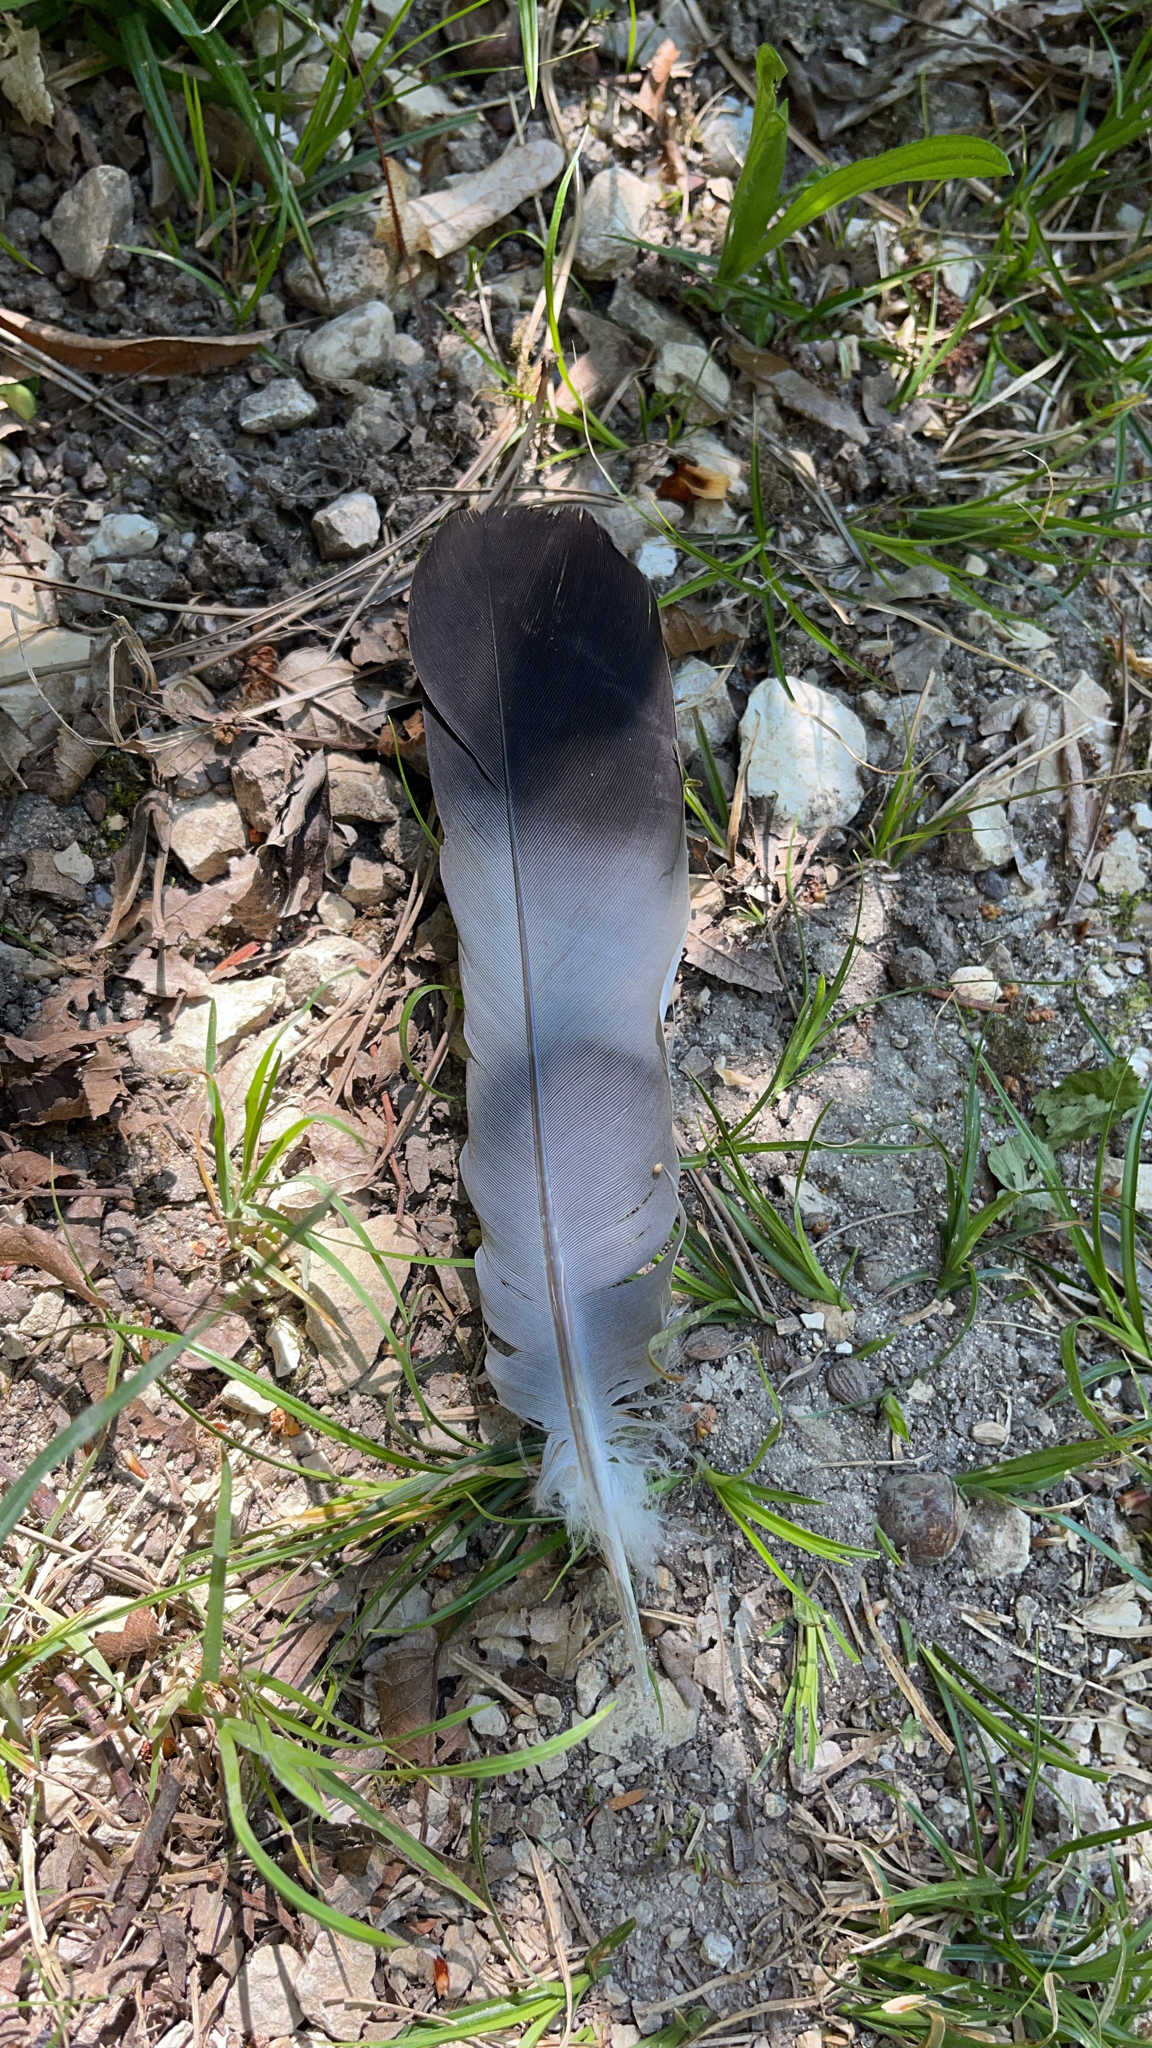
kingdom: Animalia
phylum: Chordata
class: Aves
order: Columbiformes
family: Columbidae
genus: Columba
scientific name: Columba palumbus
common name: Common wood pigeon
